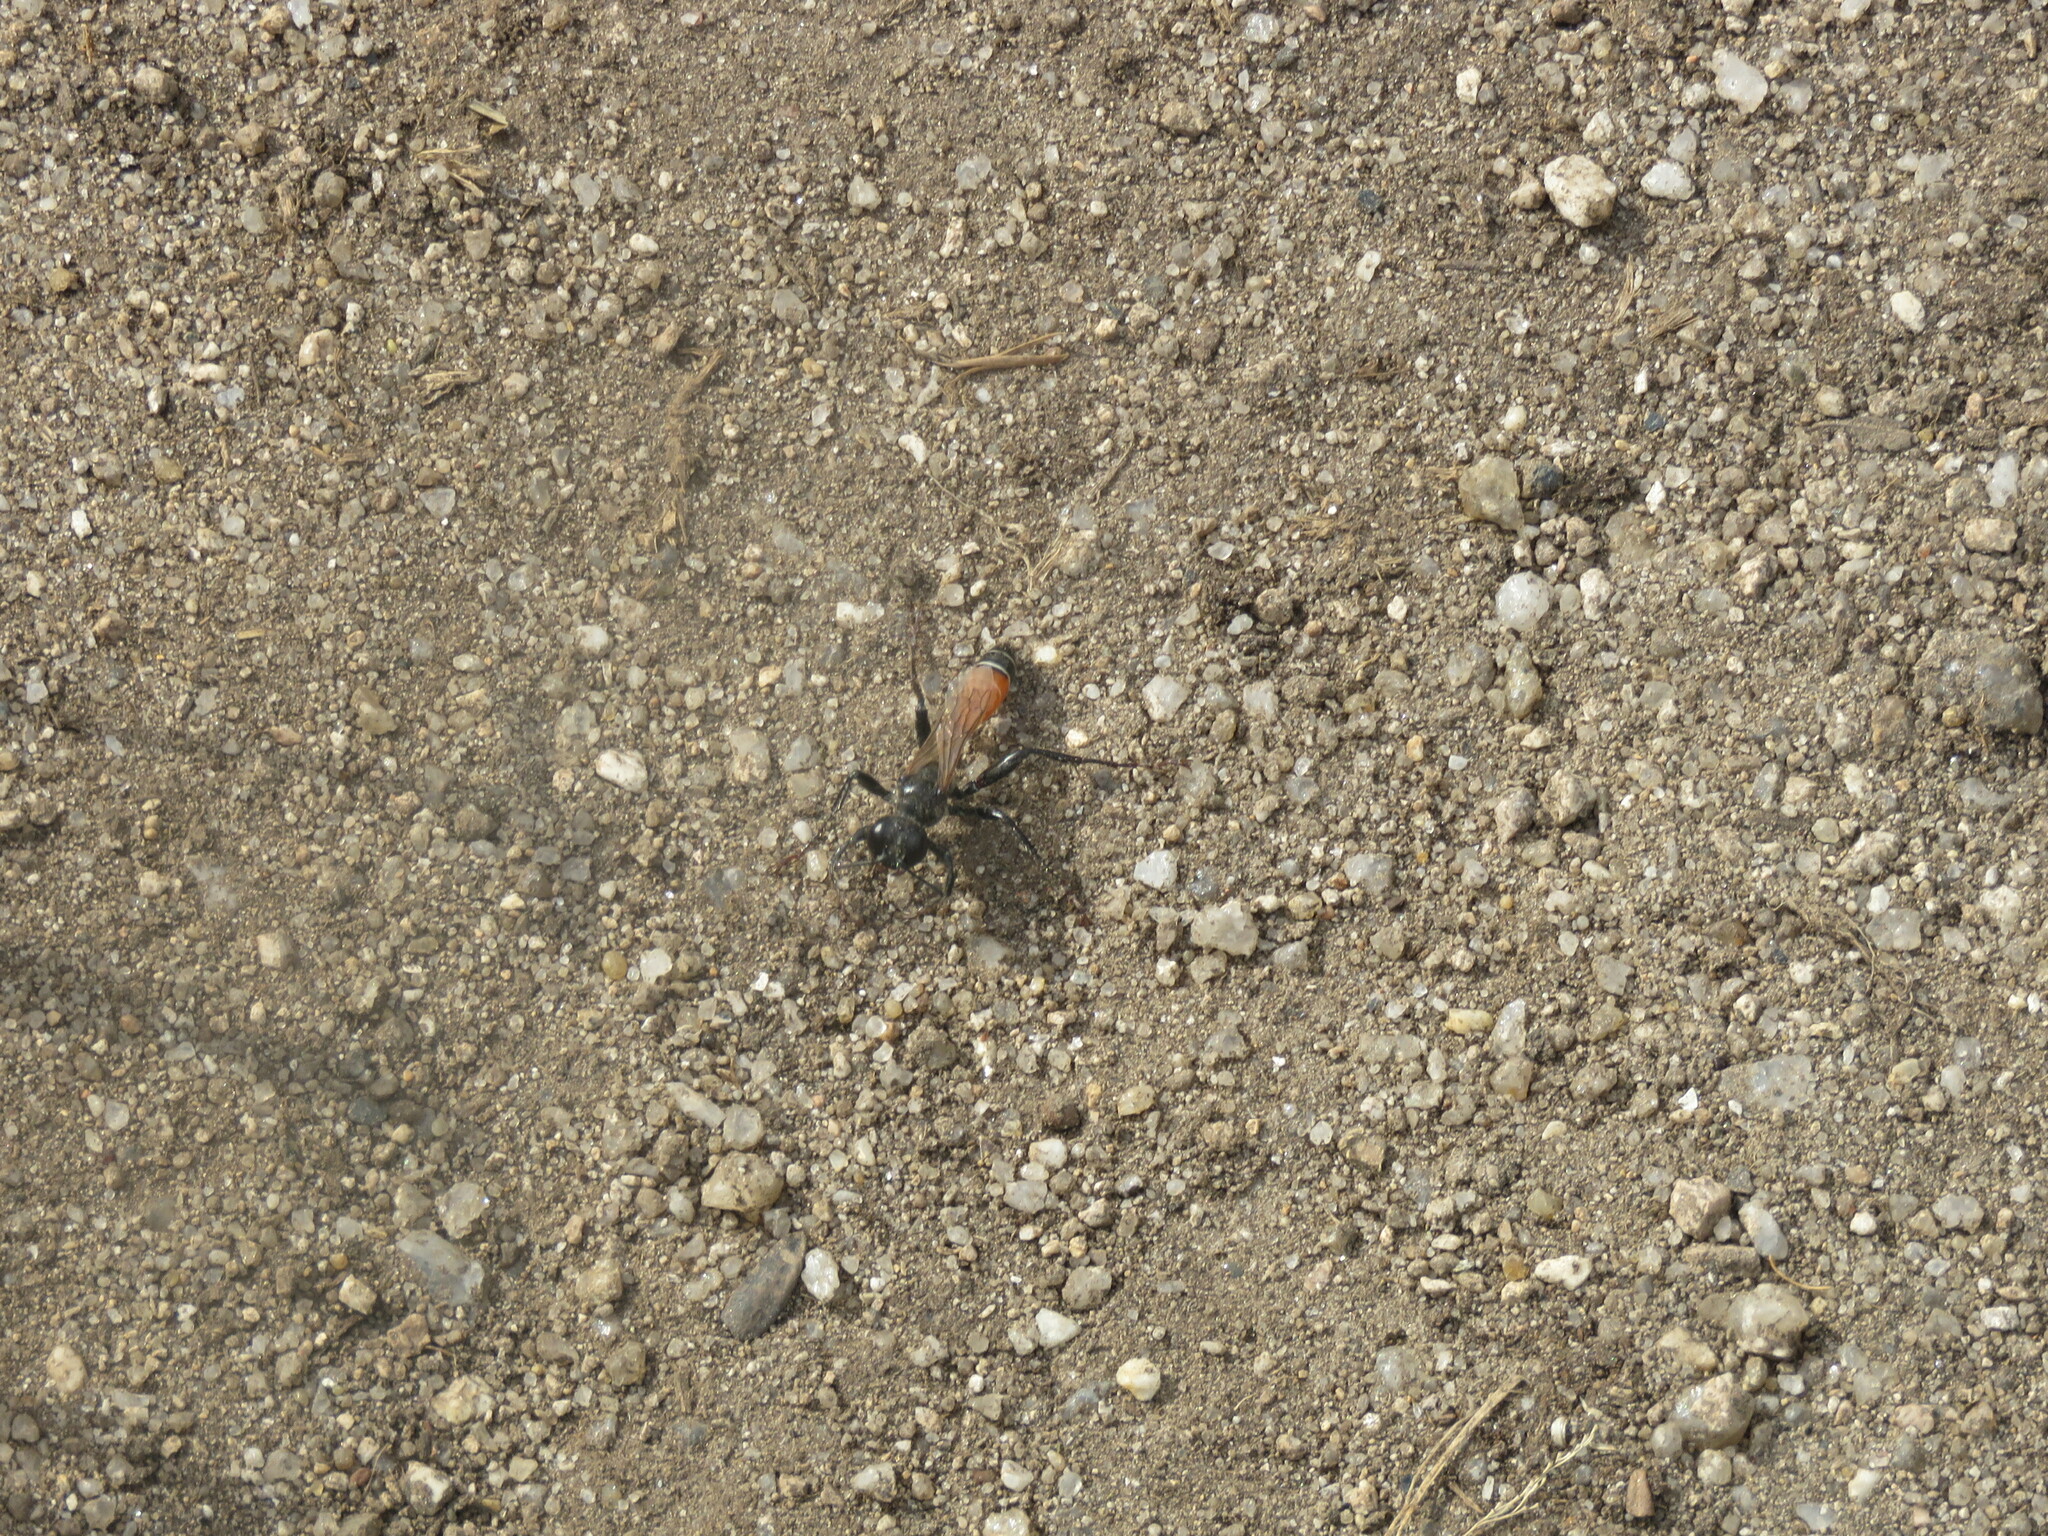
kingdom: Animalia
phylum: Arthropoda
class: Insecta
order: Hymenoptera
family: Sphecidae
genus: Prionyx
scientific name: Prionyx kirbii
